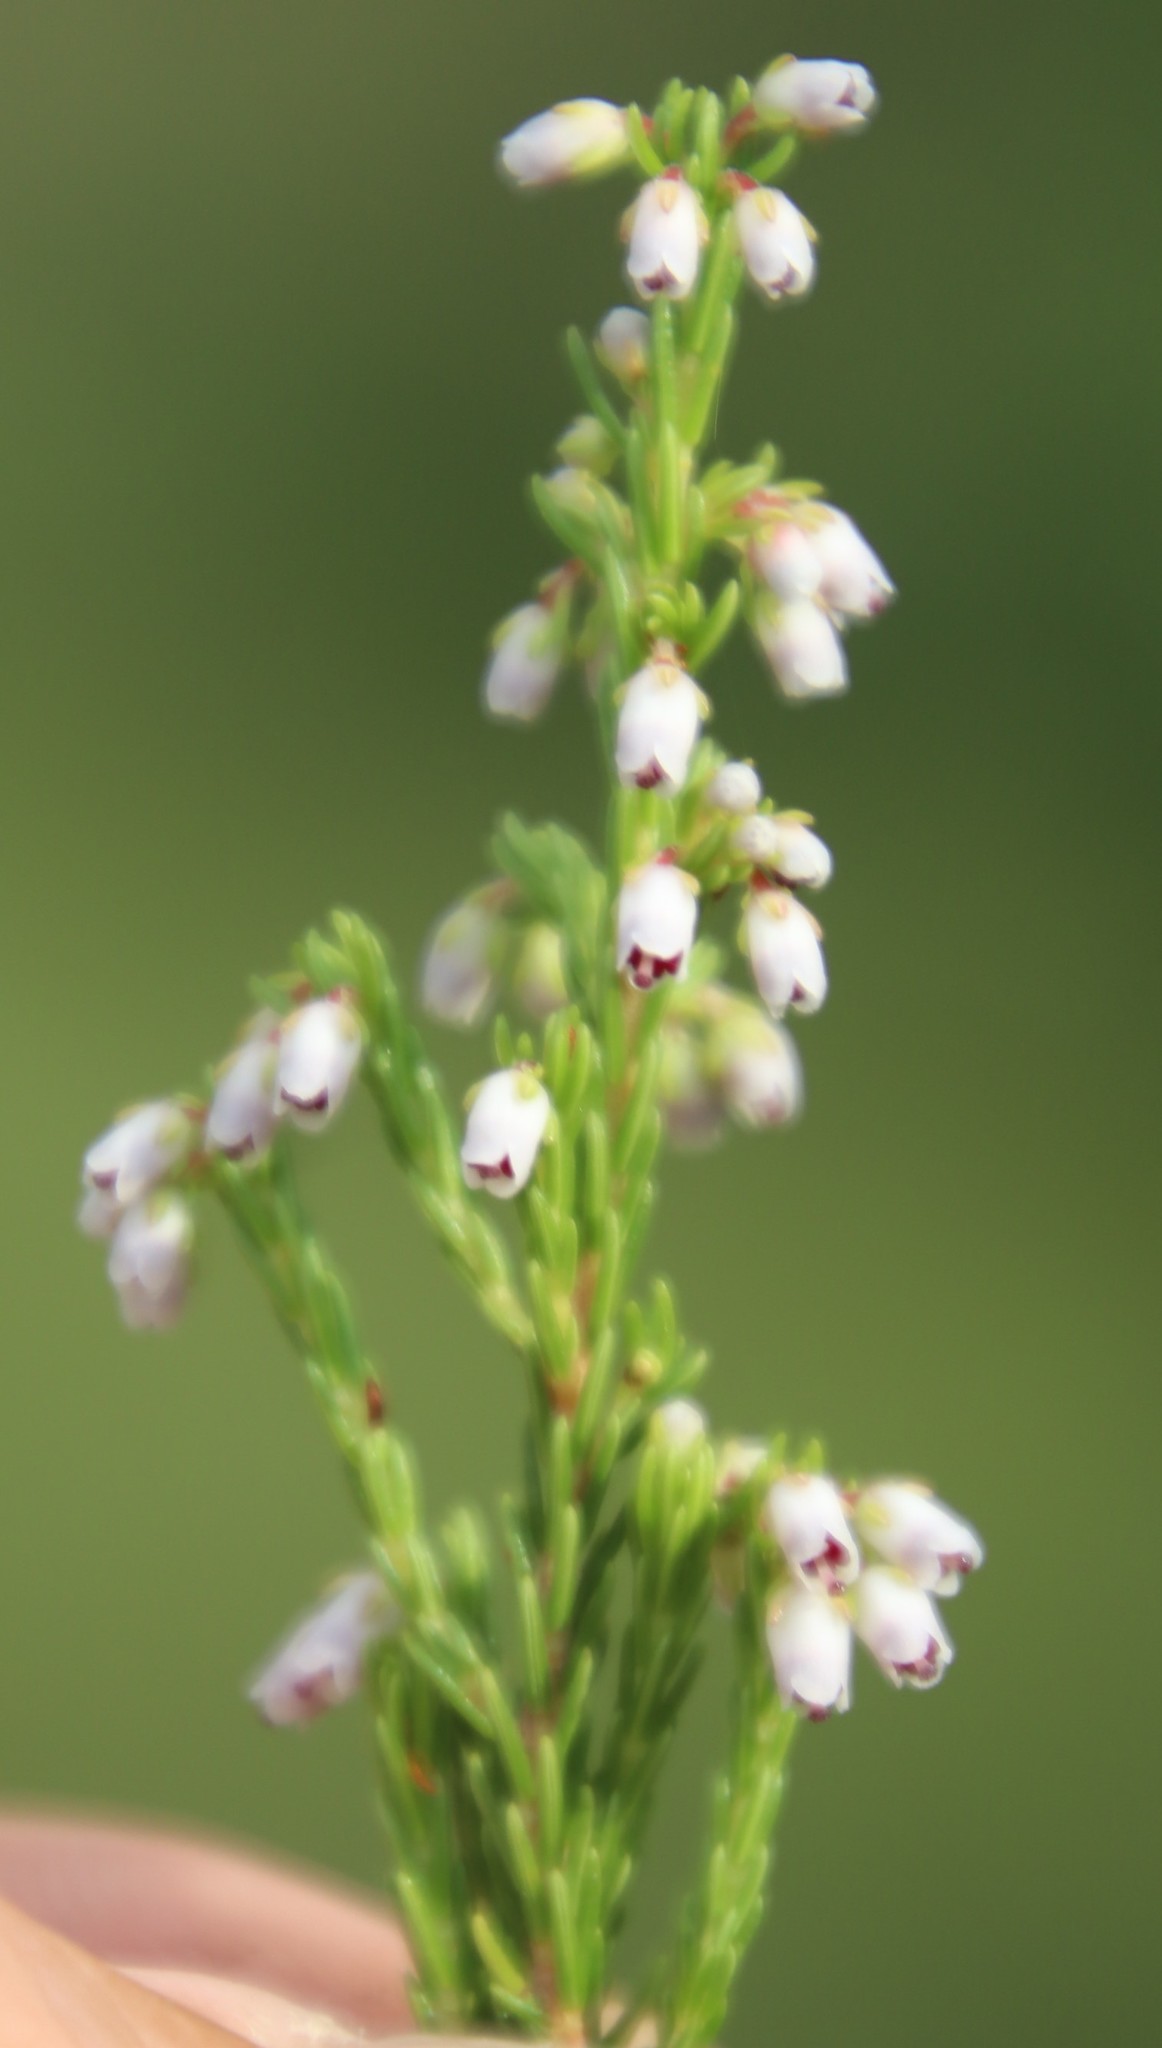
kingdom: Plantae
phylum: Tracheophyta
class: Magnoliopsida
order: Ericales
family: Ericaceae
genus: Erica
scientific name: Erica drakensbergensis
